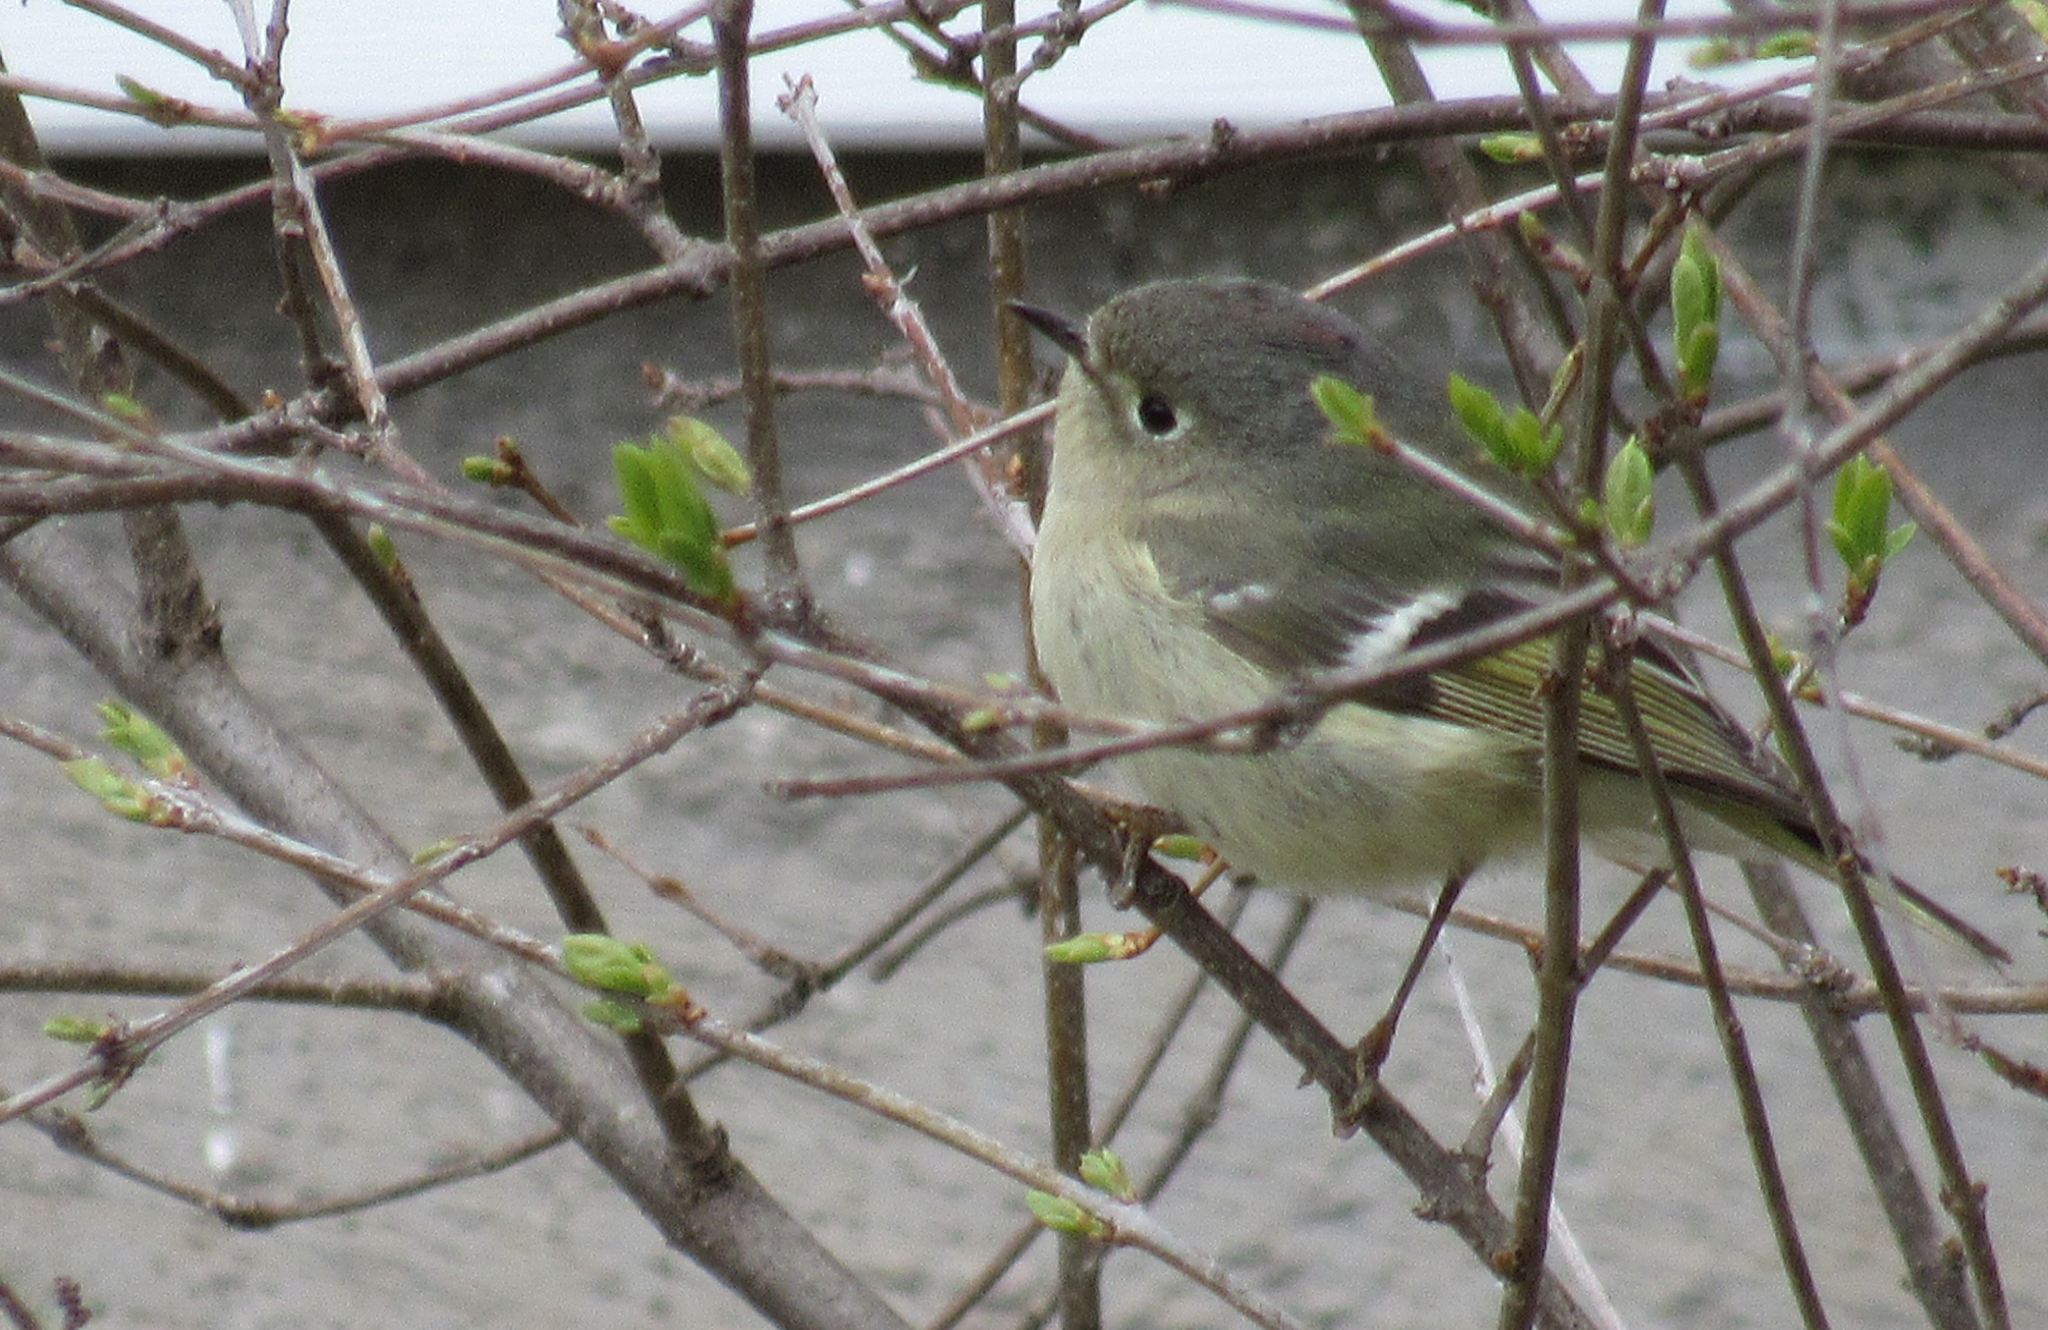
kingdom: Animalia
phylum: Chordata
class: Aves
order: Passeriformes
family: Regulidae
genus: Regulus
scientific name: Regulus calendula
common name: Ruby-crowned kinglet
